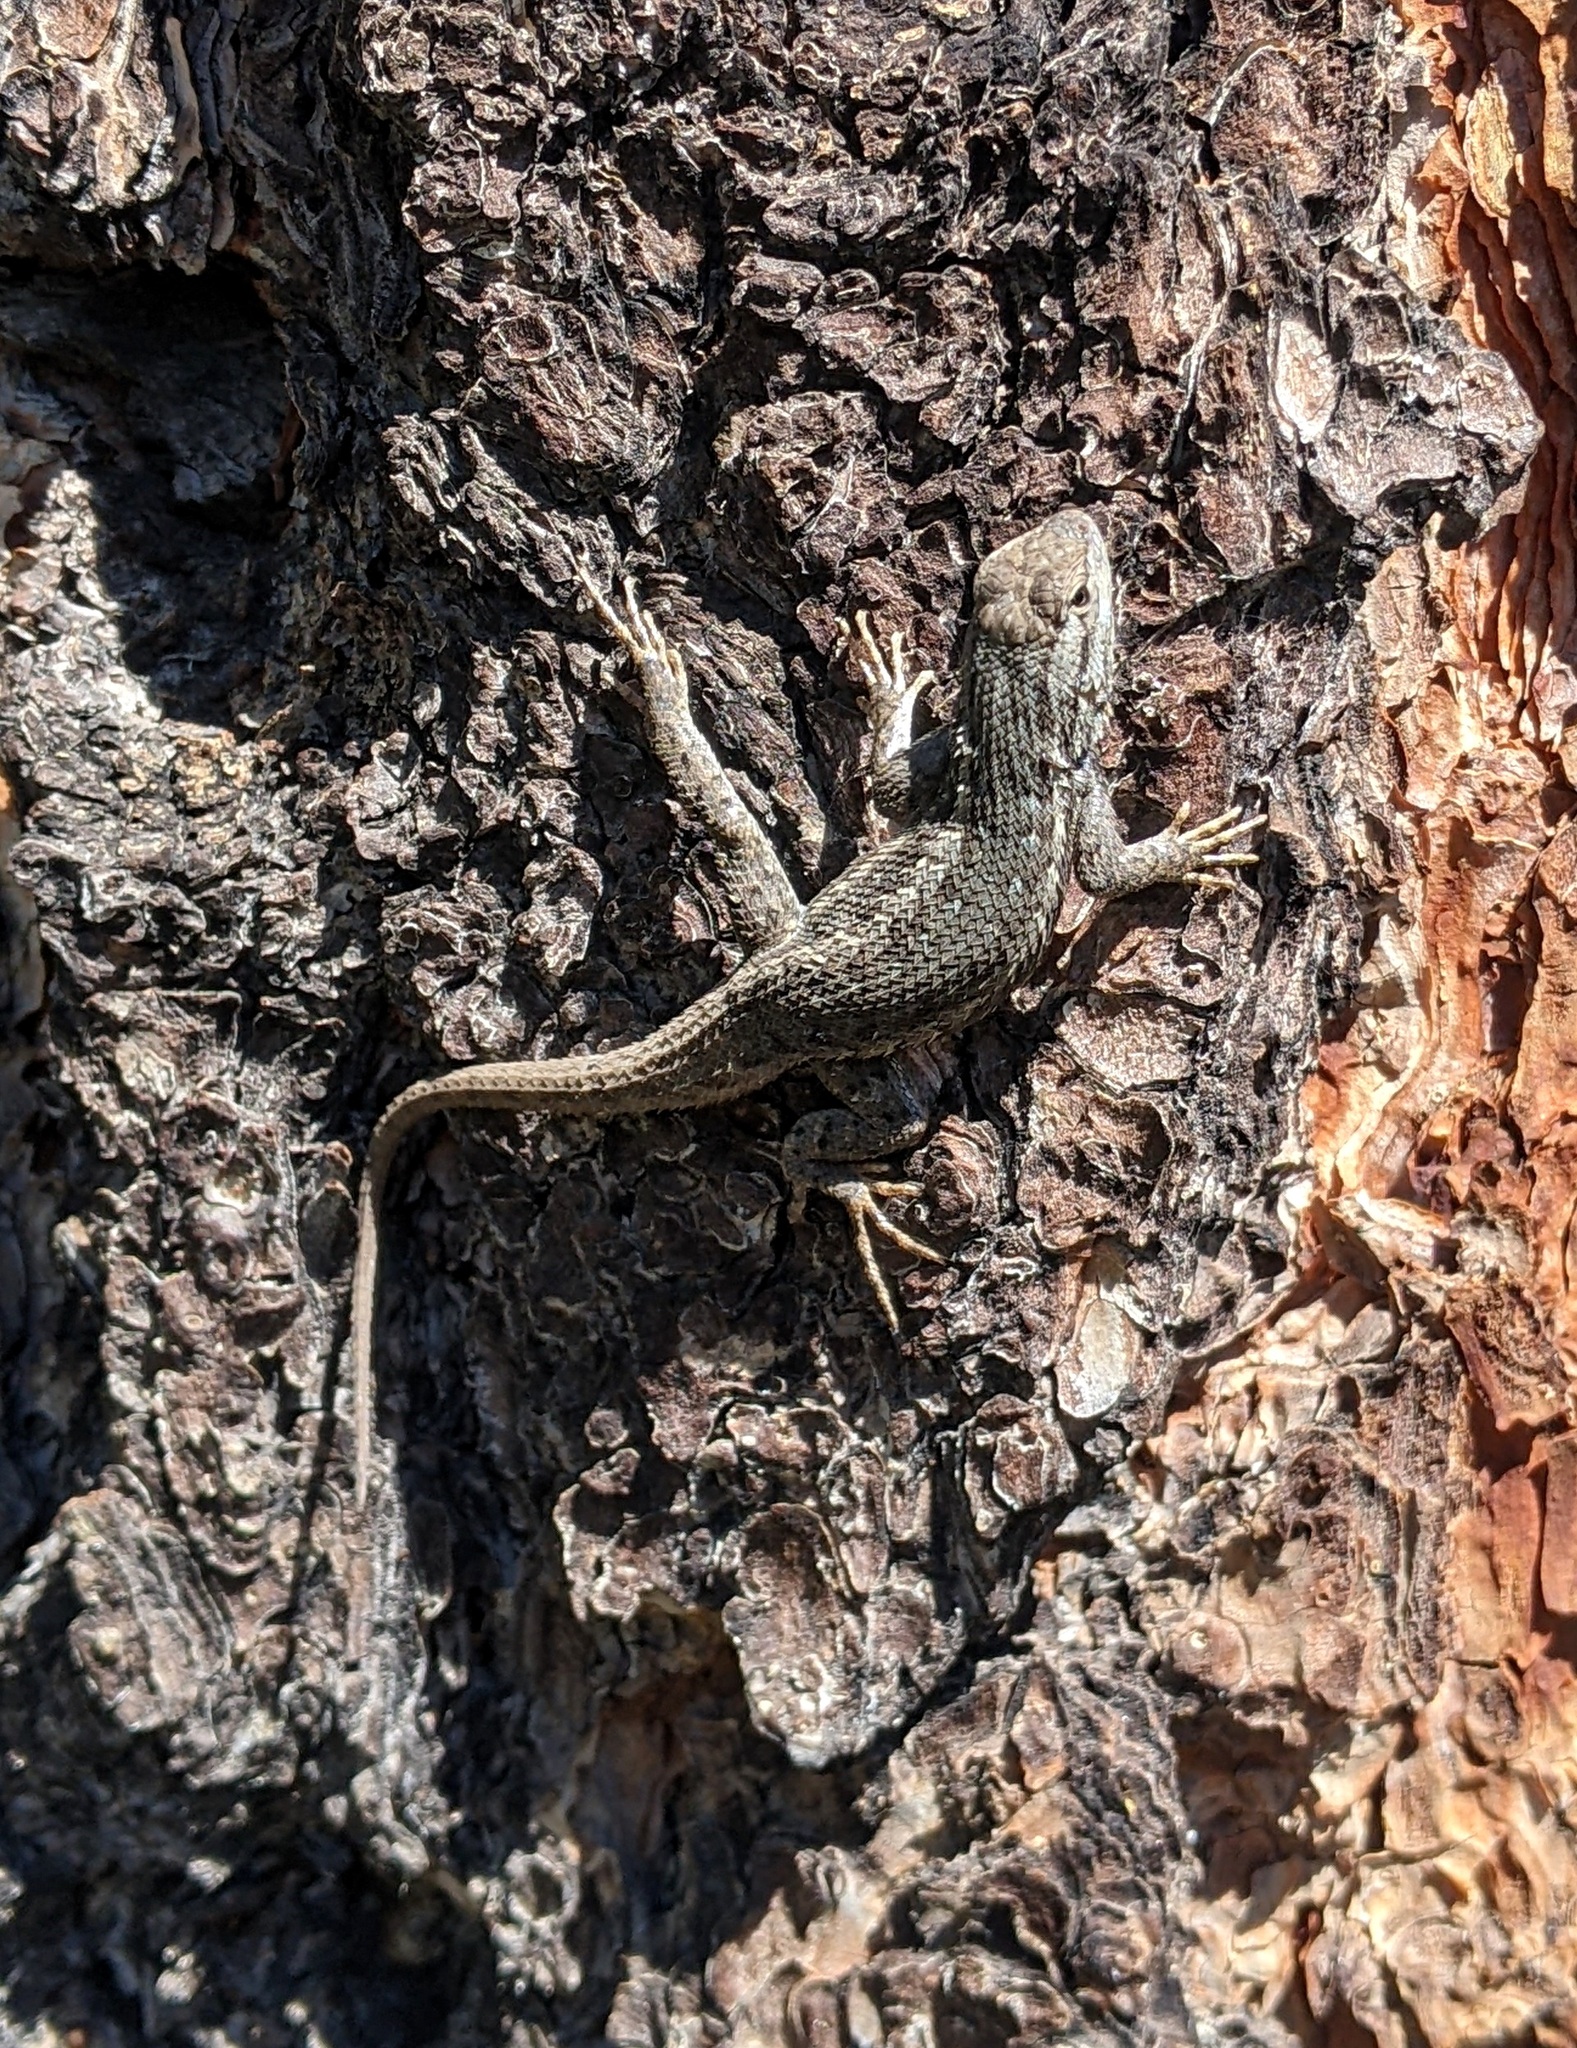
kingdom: Animalia
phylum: Chordata
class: Squamata
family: Phrynosomatidae
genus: Sceloporus
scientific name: Sceloporus tristichus
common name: Plateau fence lizard
